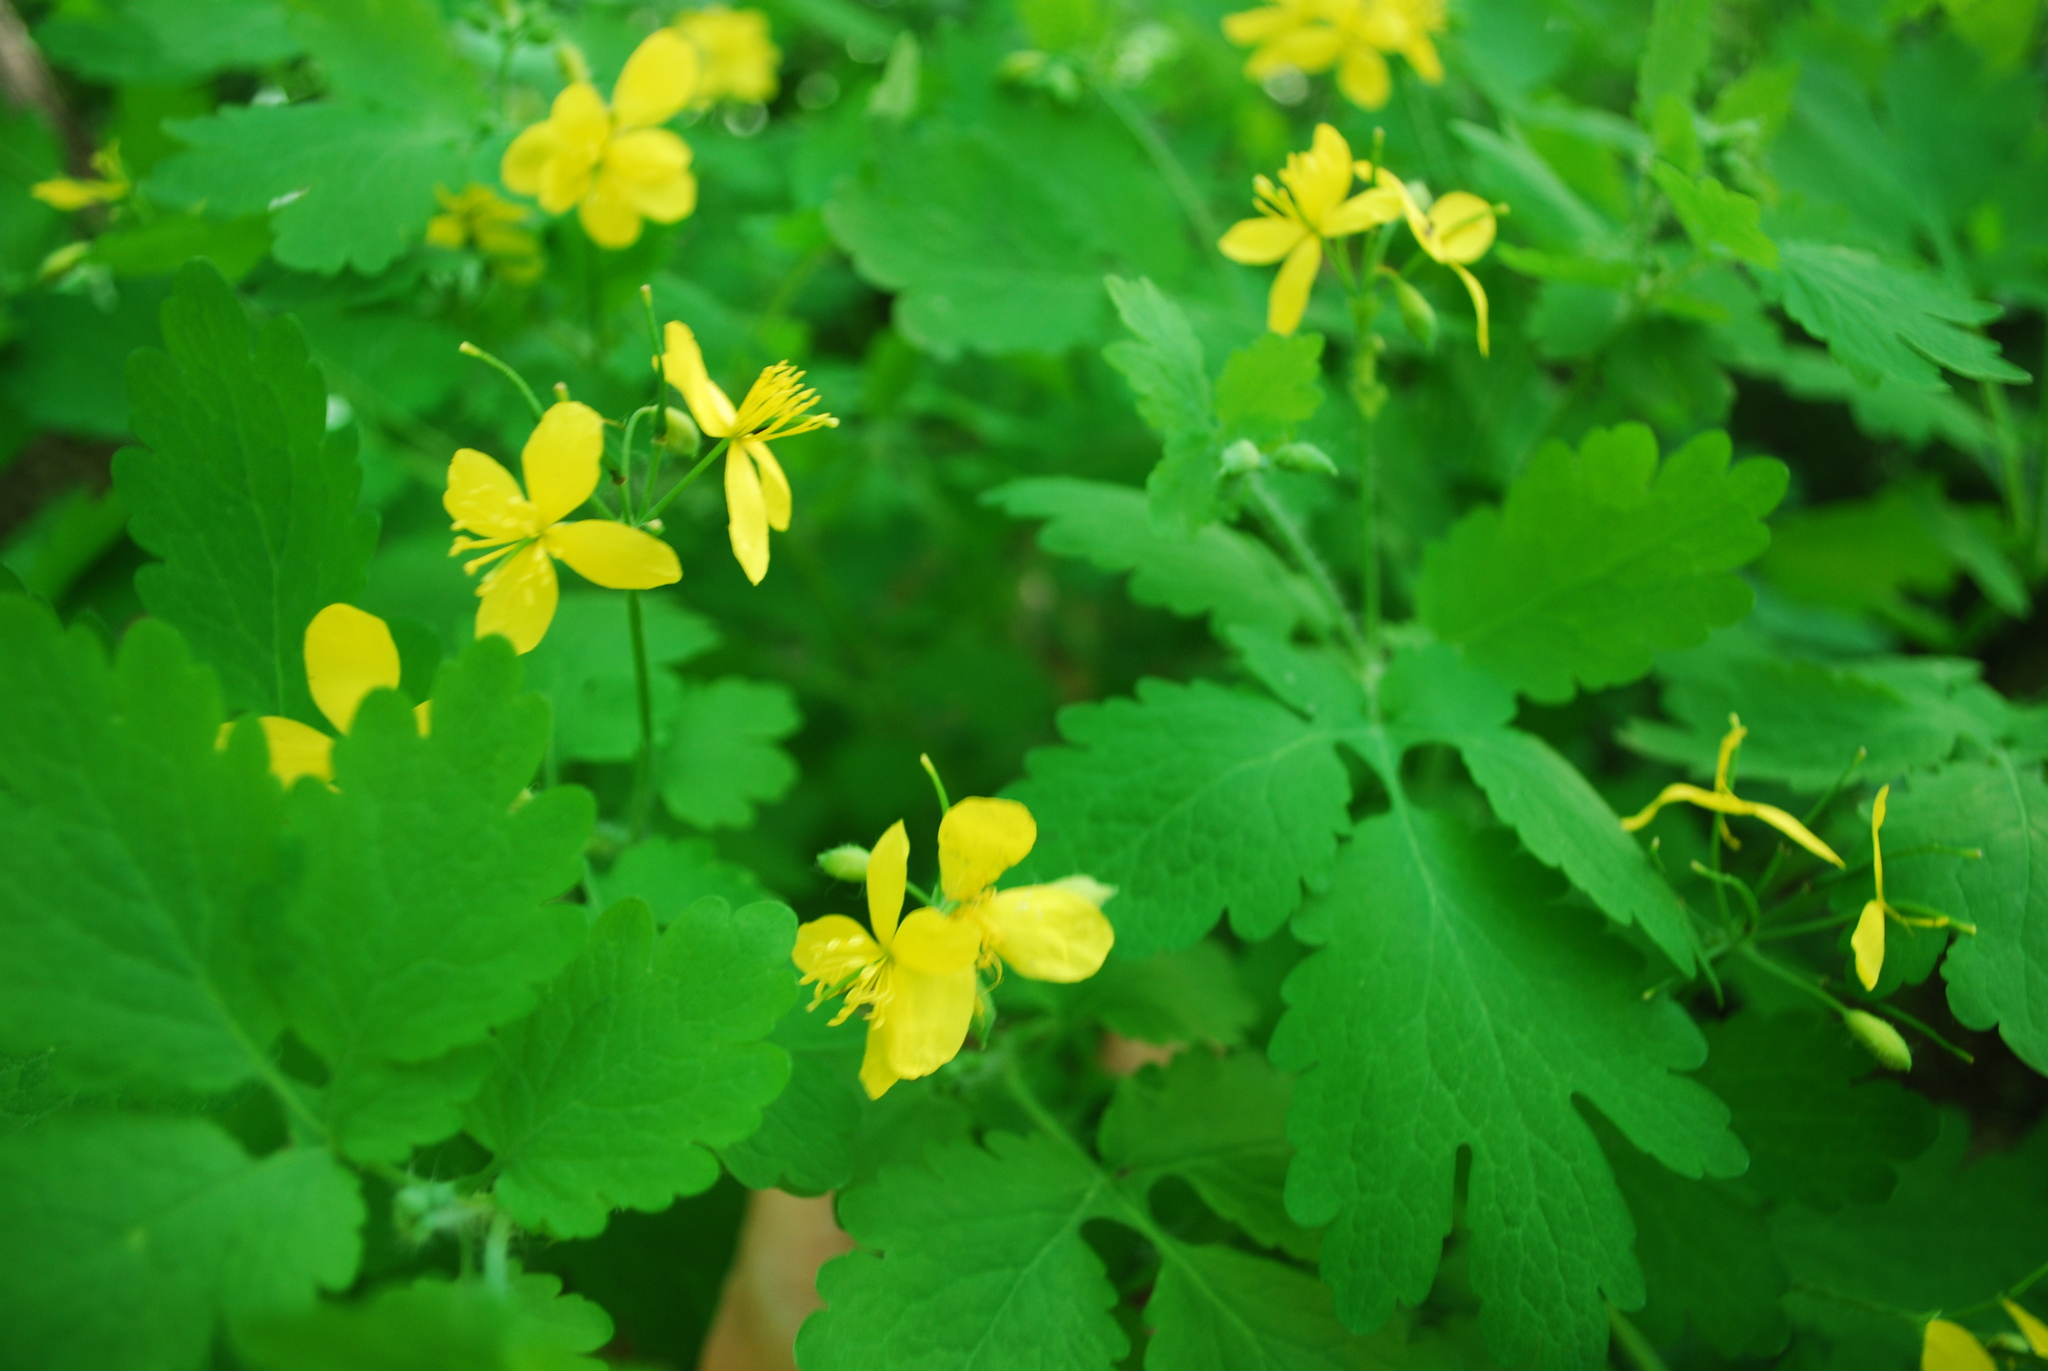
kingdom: Plantae
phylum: Tracheophyta
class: Magnoliopsida
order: Ranunculales
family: Papaveraceae
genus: Chelidonium
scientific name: Chelidonium majus
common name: Greater celandine
